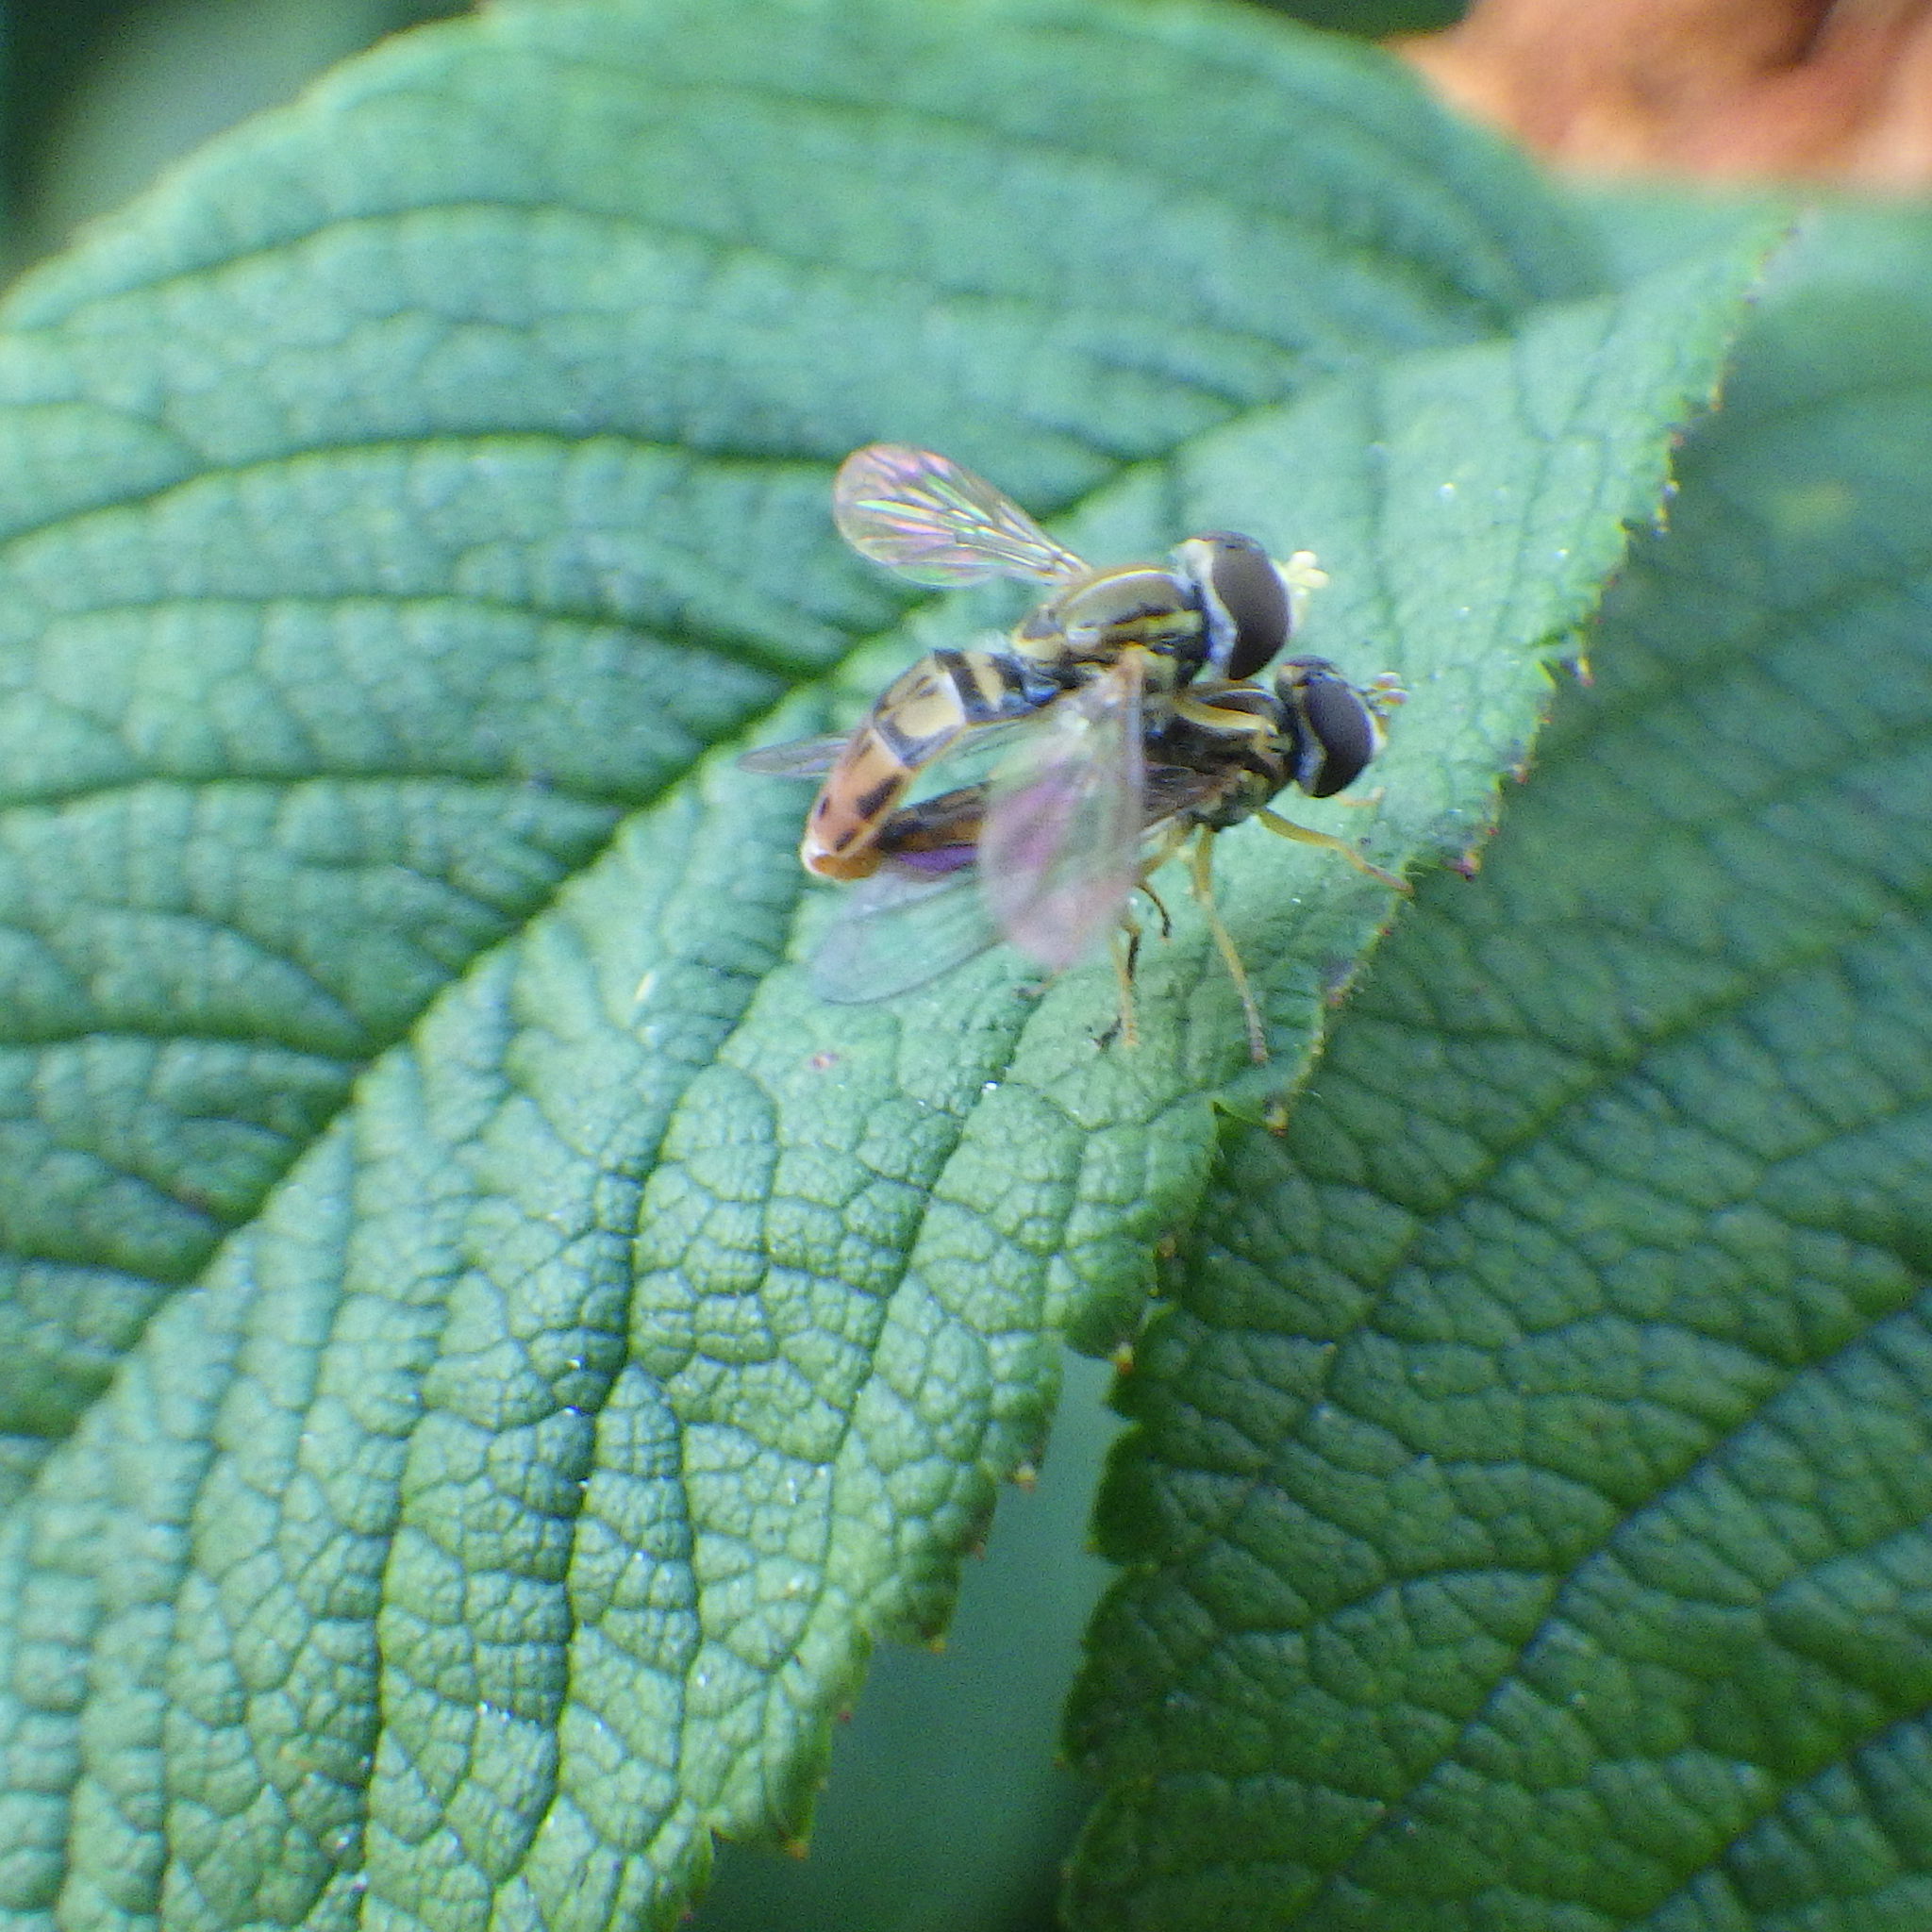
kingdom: Animalia
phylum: Arthropoda
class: Insecta
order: Diptera
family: Syrphidae
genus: Toxomerus
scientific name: Toxomerus marginatus
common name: Syrphid fly
